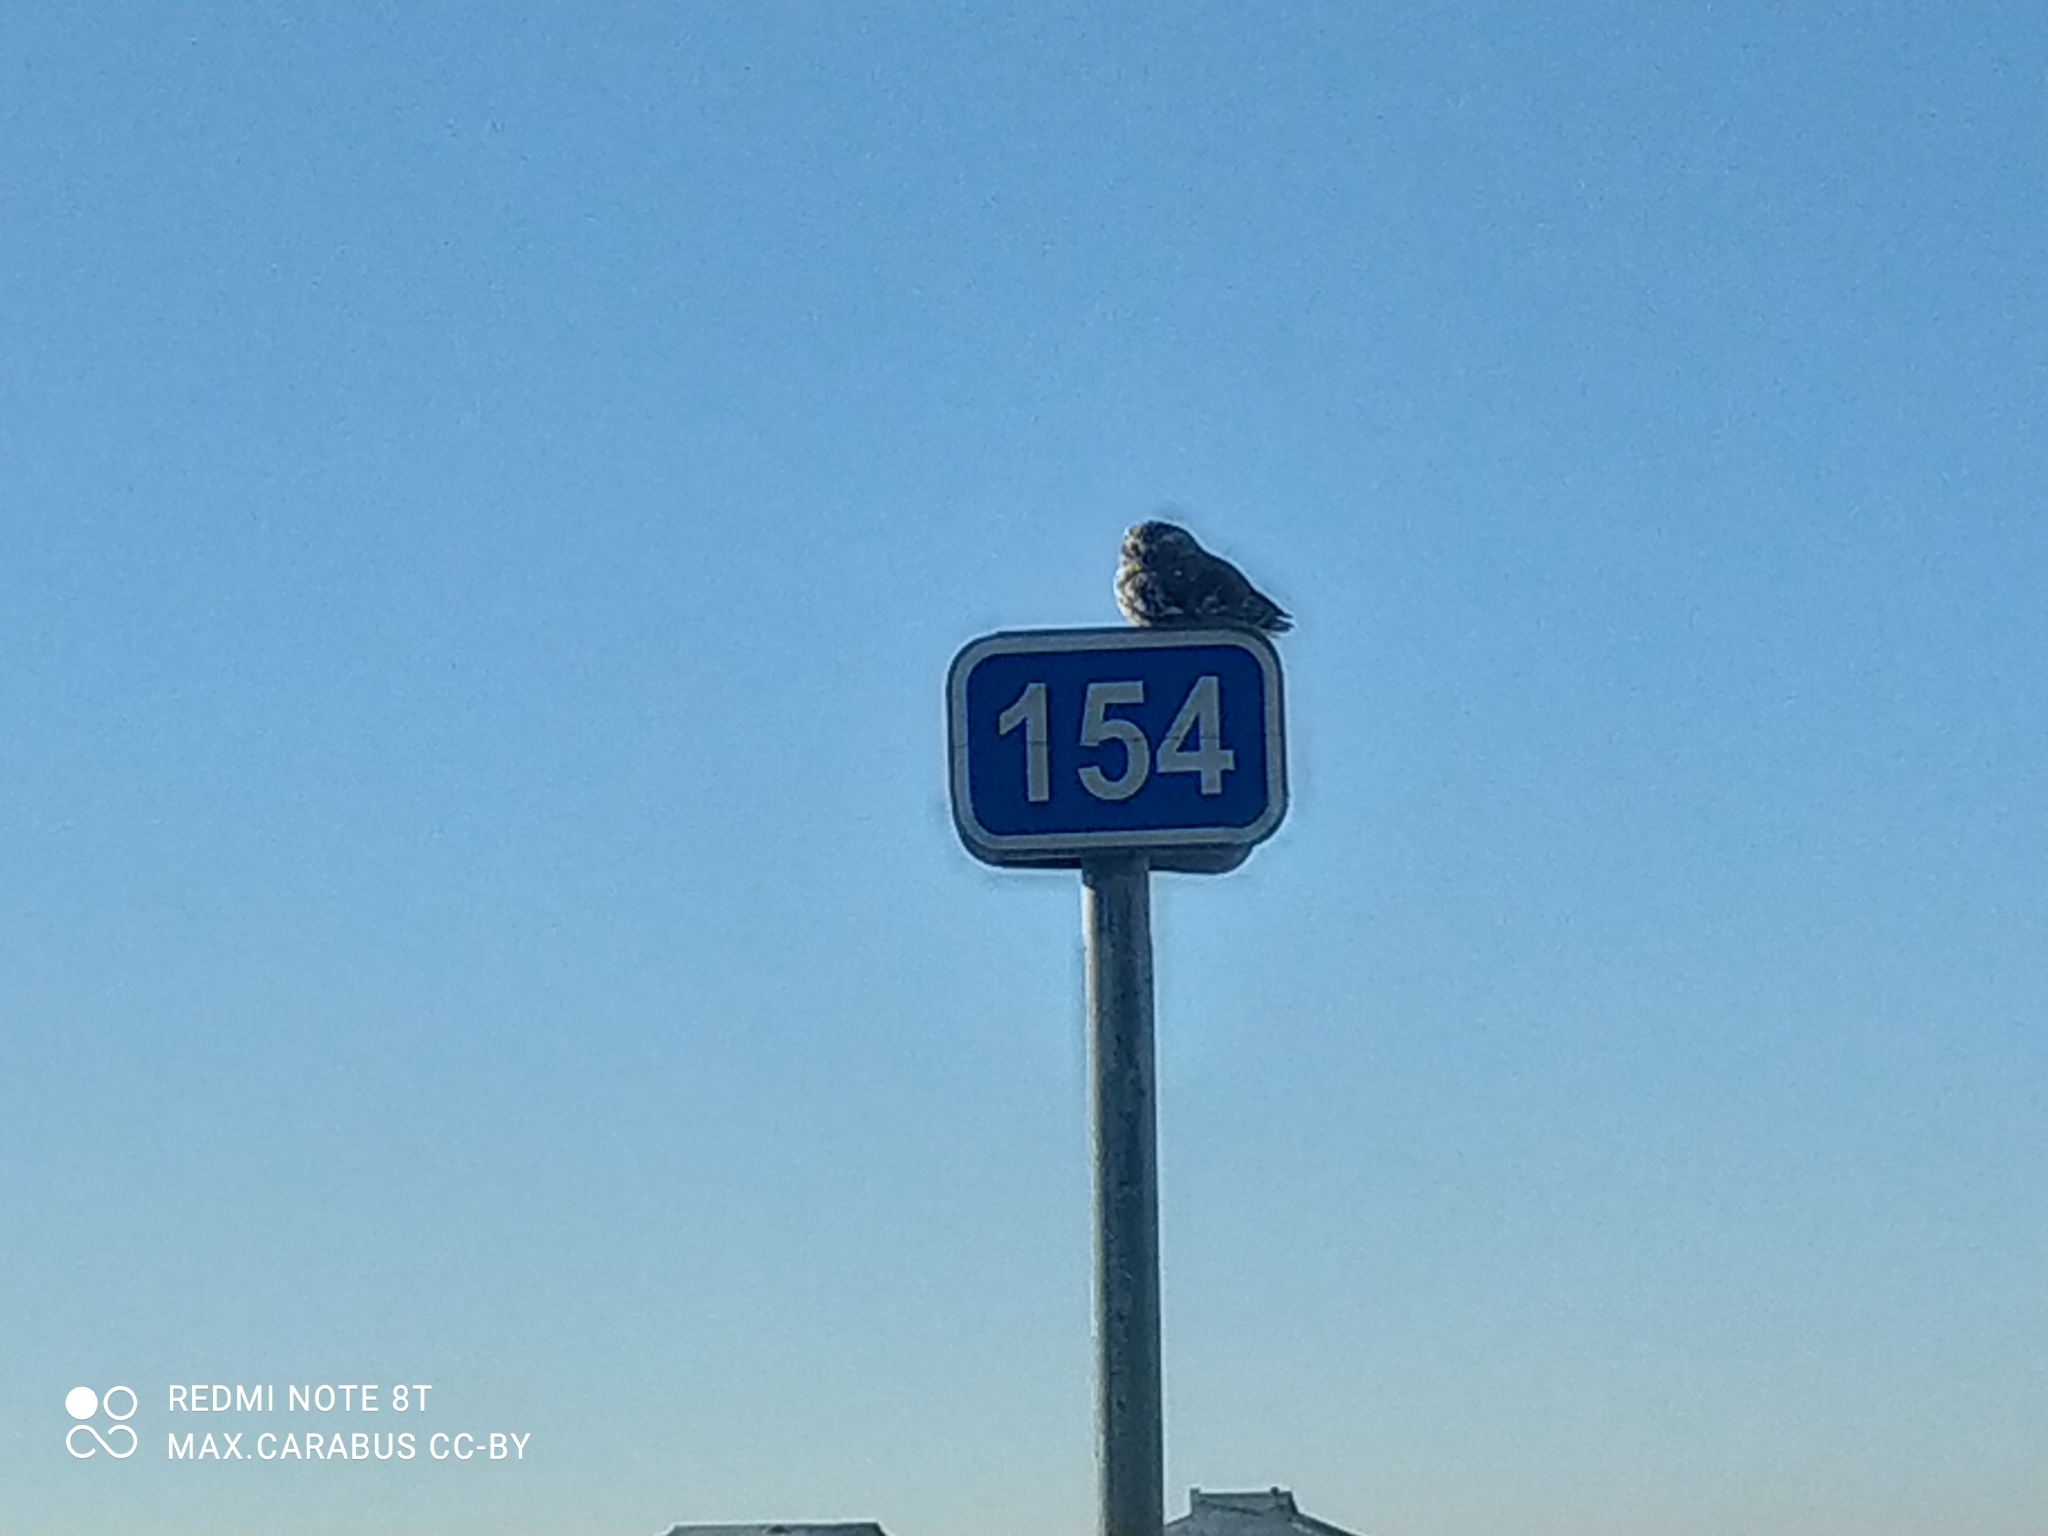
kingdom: Animalia
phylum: Chordata
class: Aves
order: Strigiformes
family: Strigidae
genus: Athene
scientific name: Athene noctua
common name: Little owl
